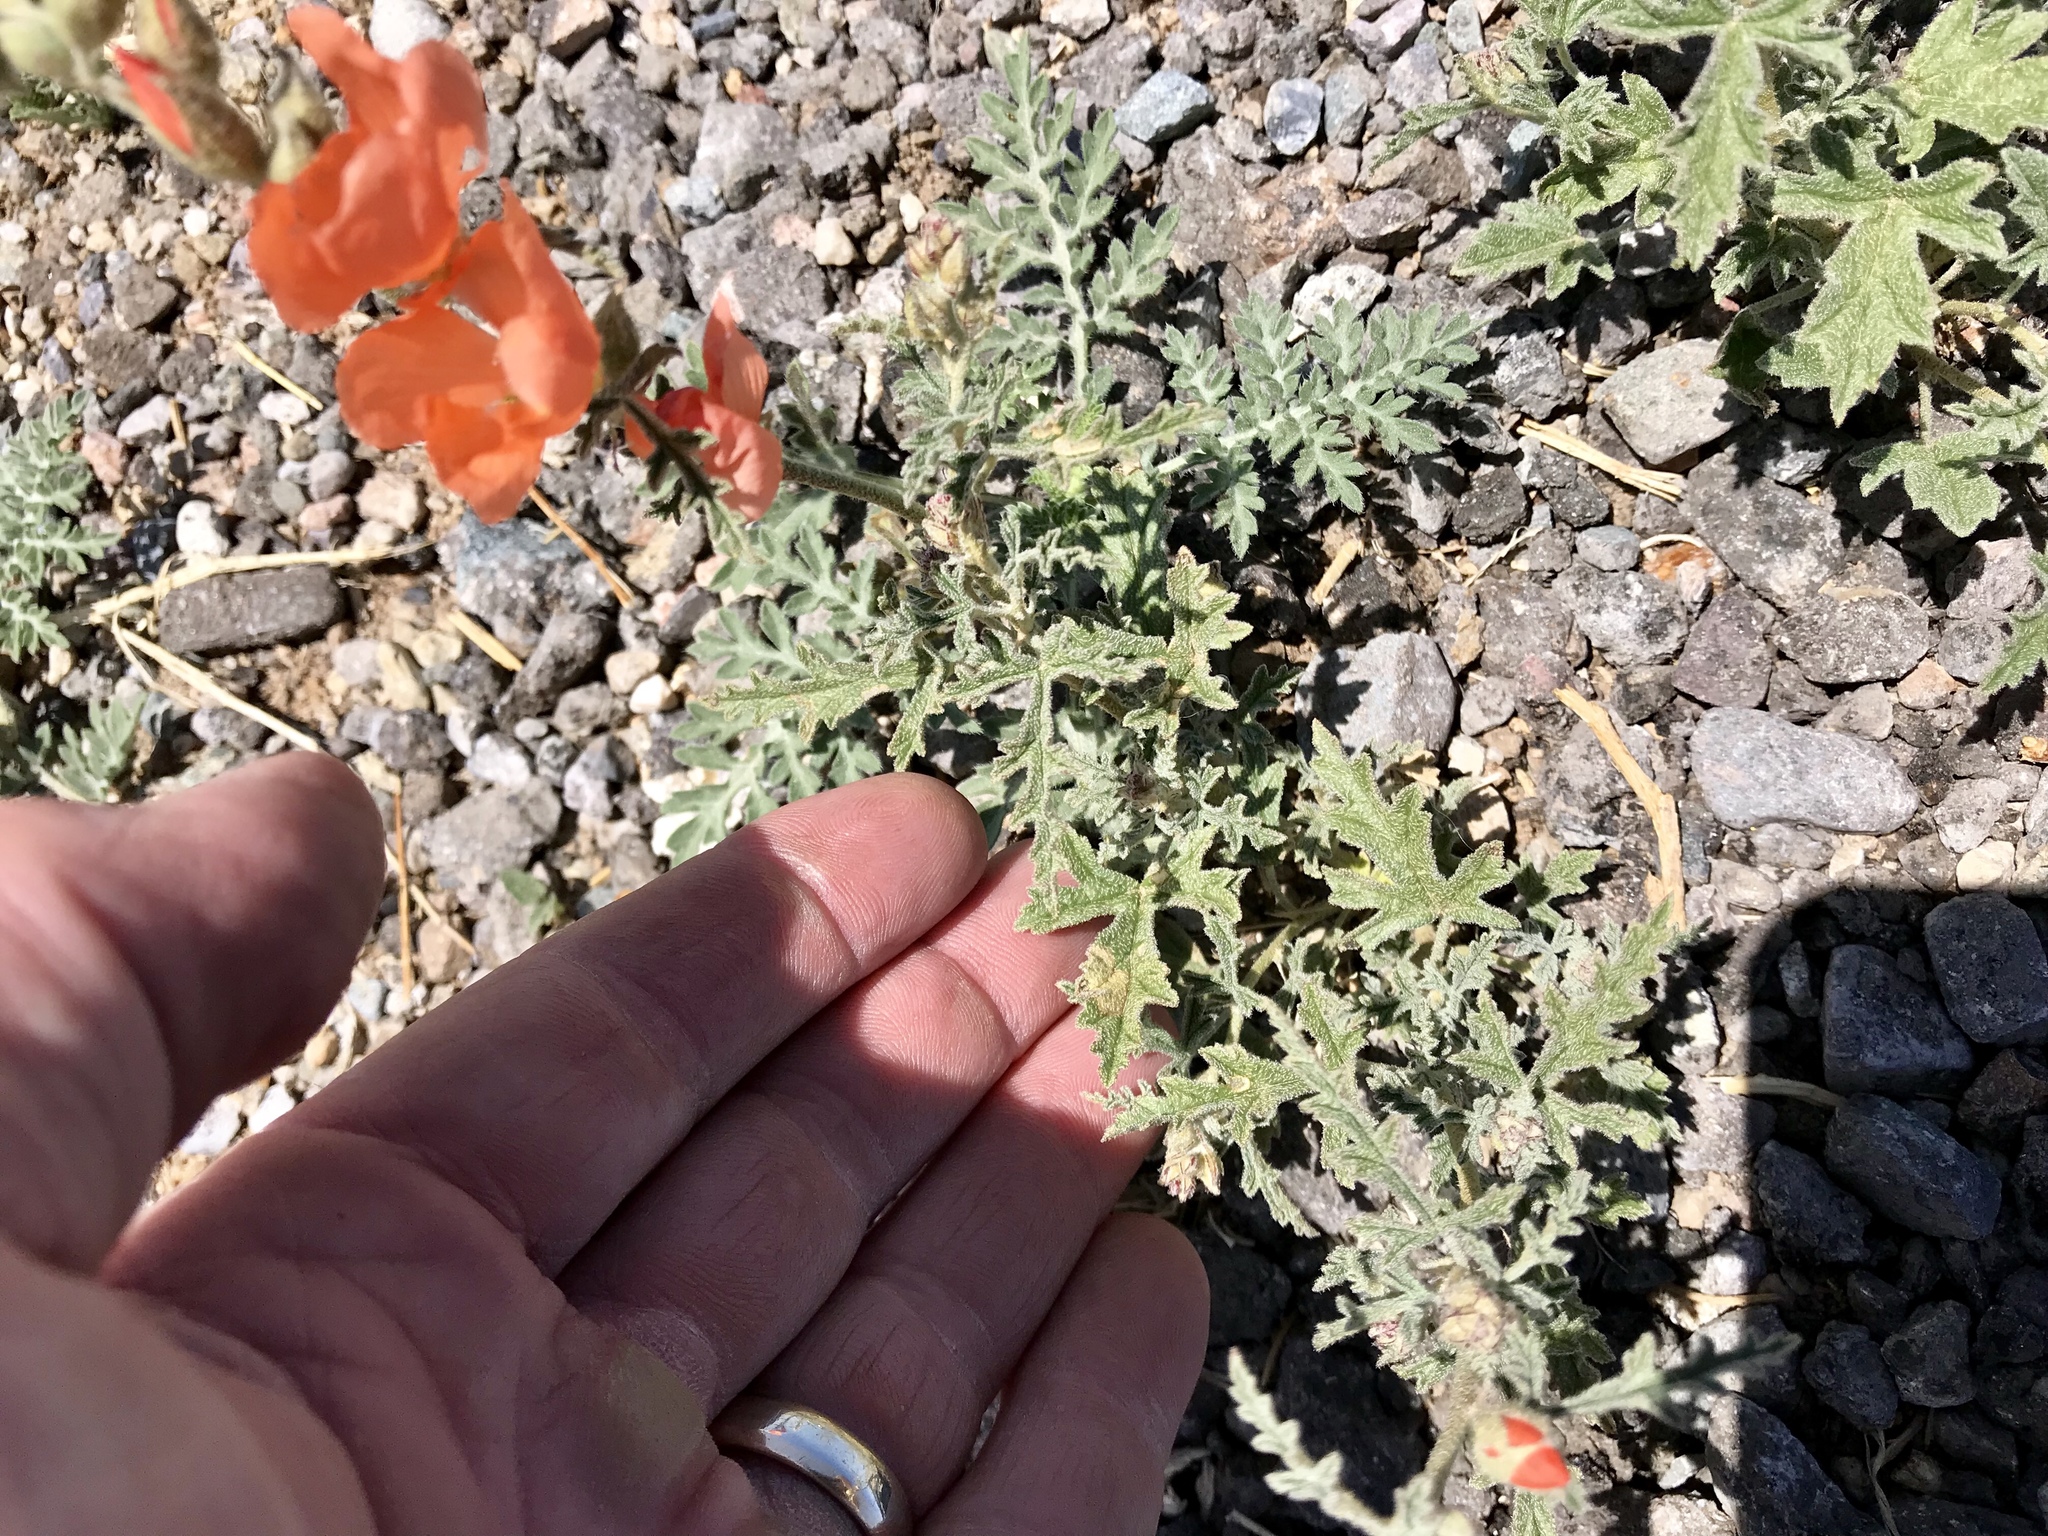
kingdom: Plantae
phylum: Tracheophyta
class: Magnoliopsida
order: Malvales
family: Malvaceae
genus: Sphaeralcea
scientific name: Sphaeralcea coccinea
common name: Moss-rose
